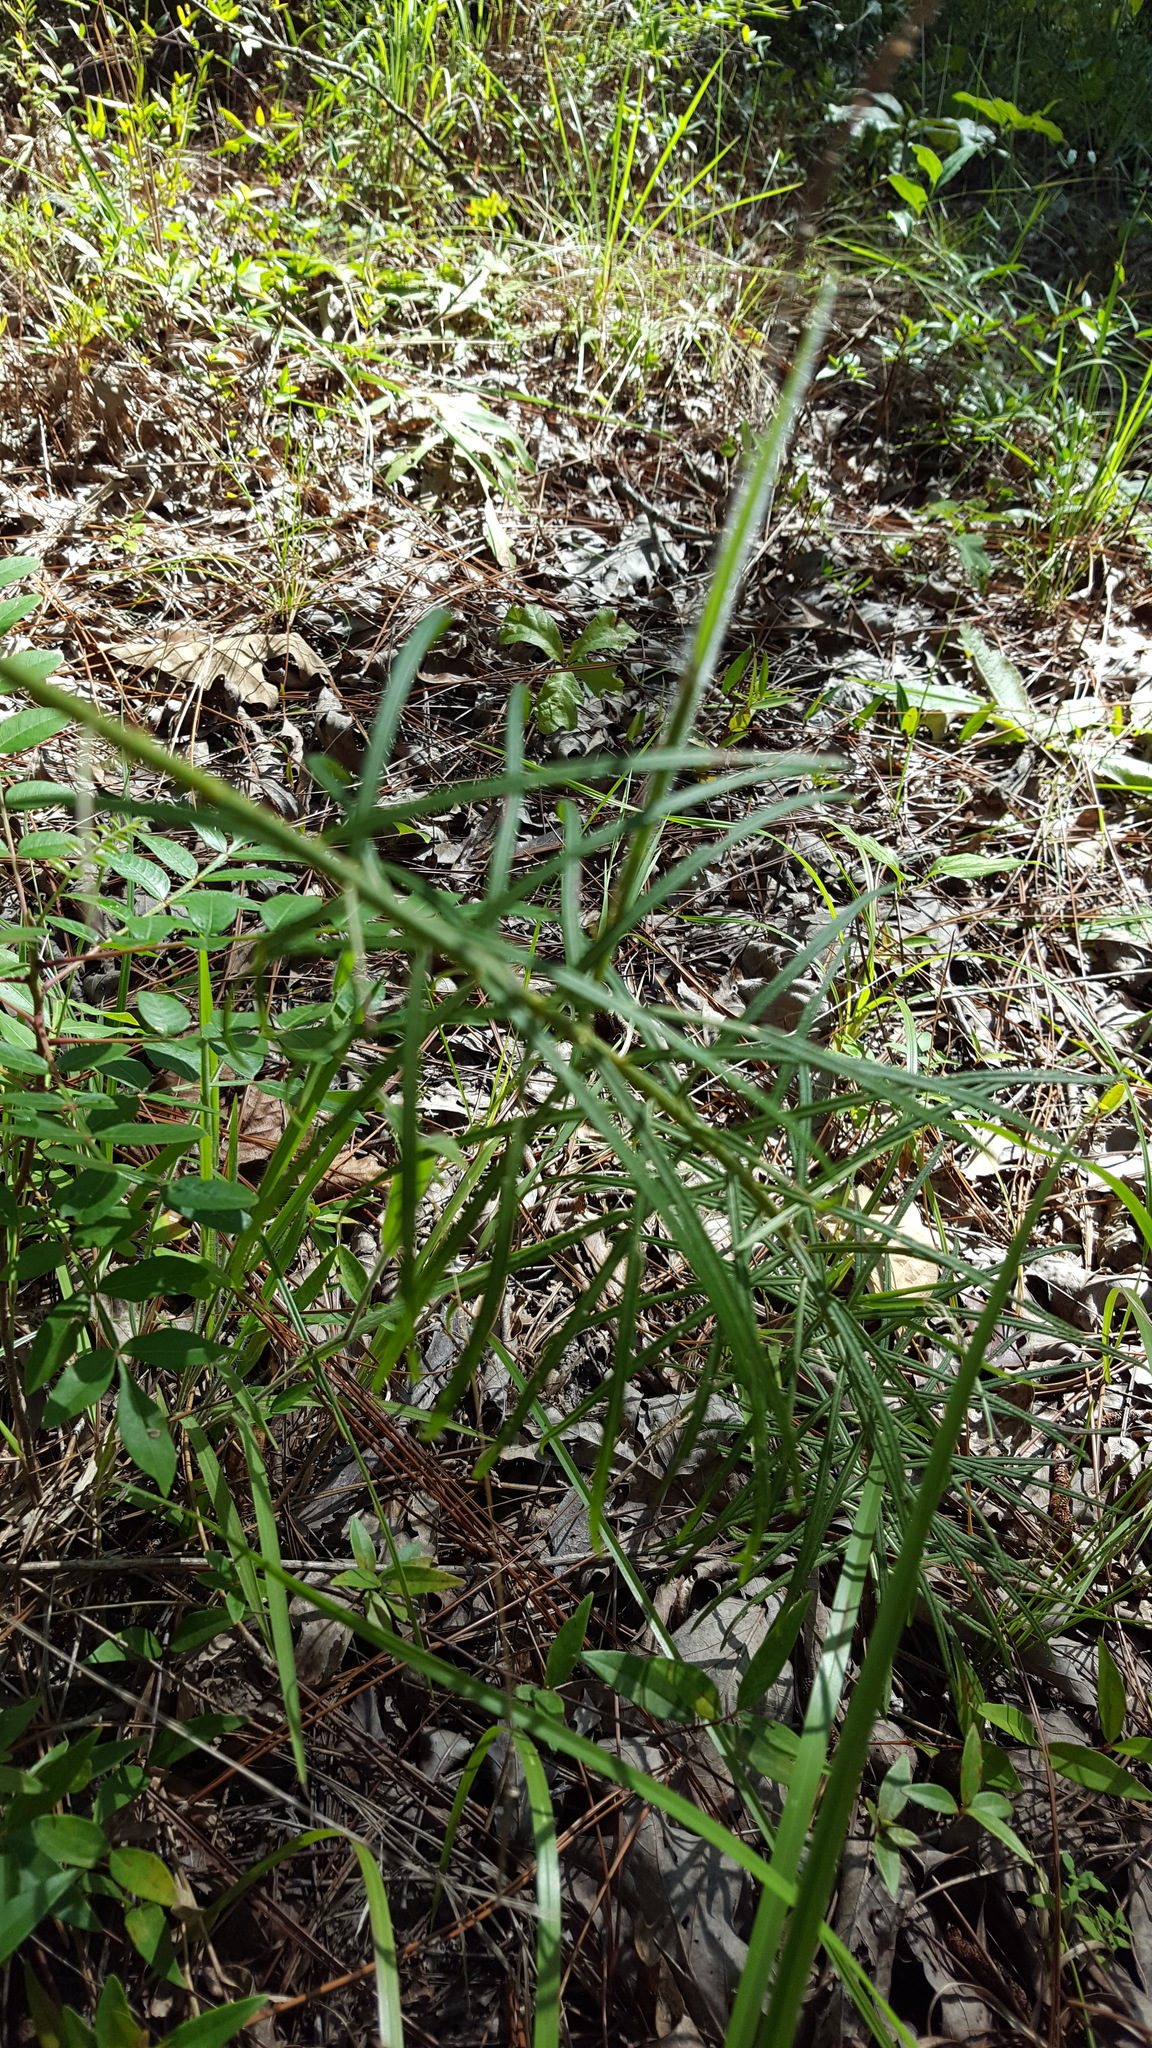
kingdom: Plantae
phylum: Tracheophyta
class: Magnoliopsida
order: Asterales
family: Asteraceae
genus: Vernonia
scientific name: Vernonia angustifolia
